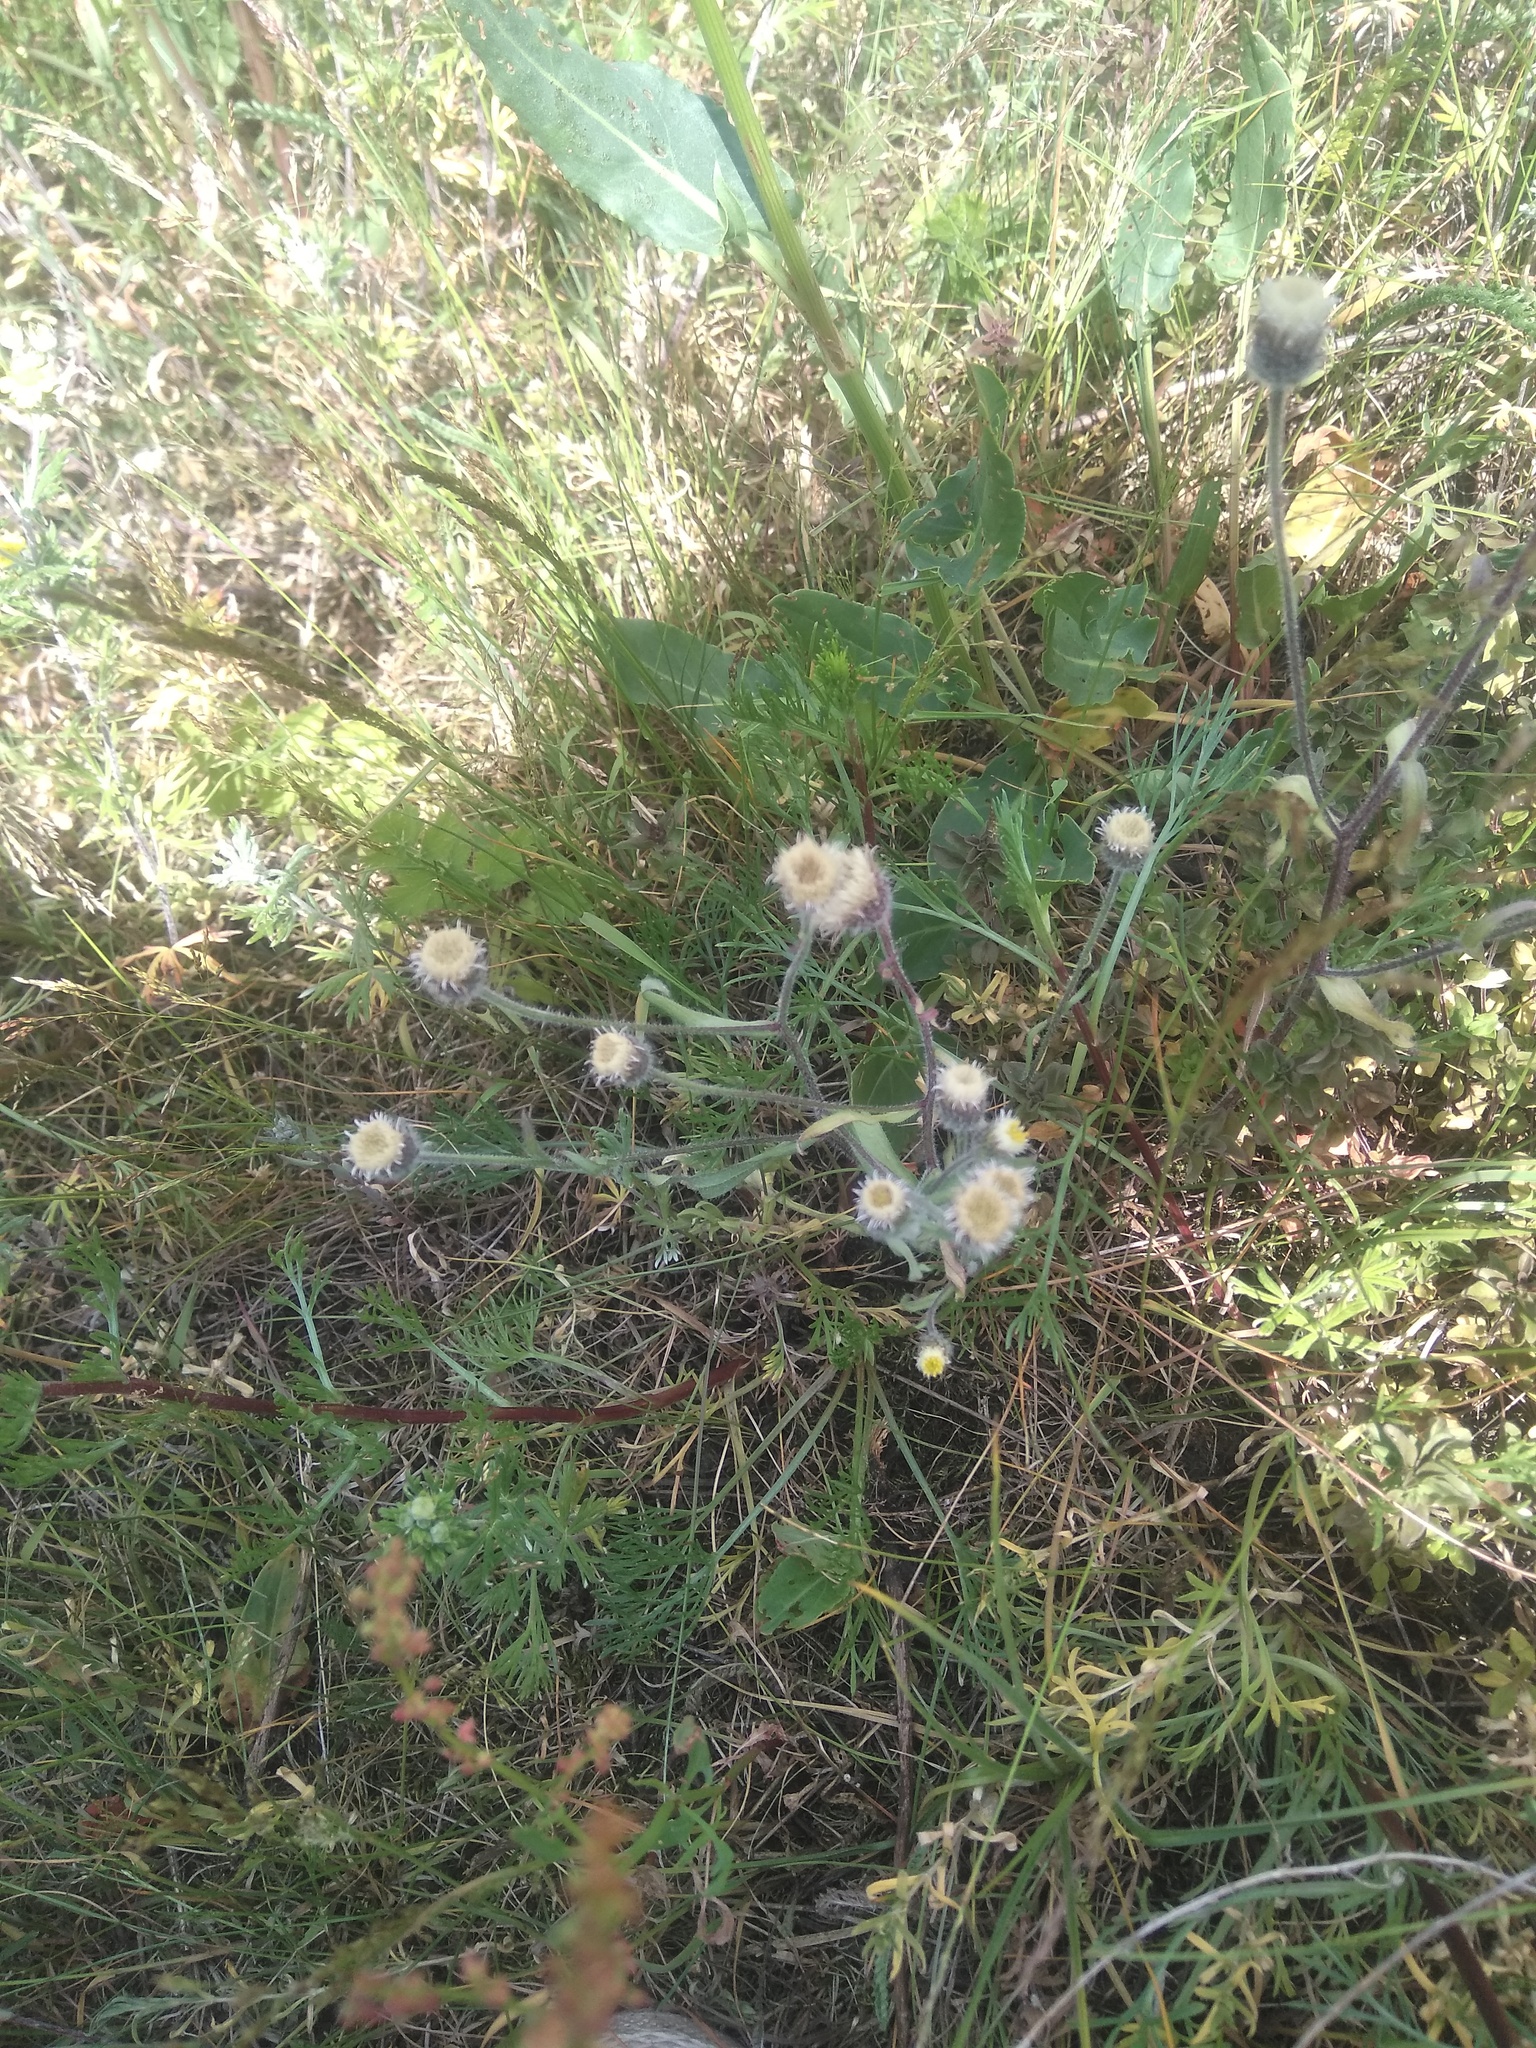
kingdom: Plantae
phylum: Tracheophyta
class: Magnoliopsida
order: Asterales
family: Asteraceae
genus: Erigeron
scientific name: Erigeron acris
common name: Blue fleabane
